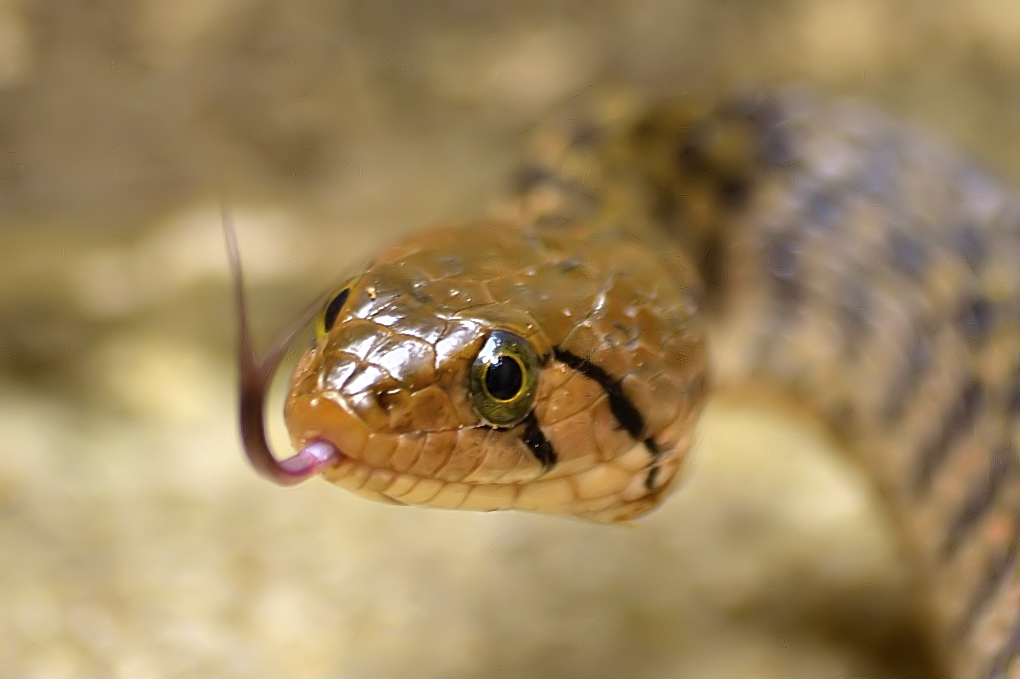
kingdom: Animalia
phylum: Chordata
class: Squamata
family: Colubridae
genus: Fowlea
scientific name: Fowlea piscator
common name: Asiatic water snake
